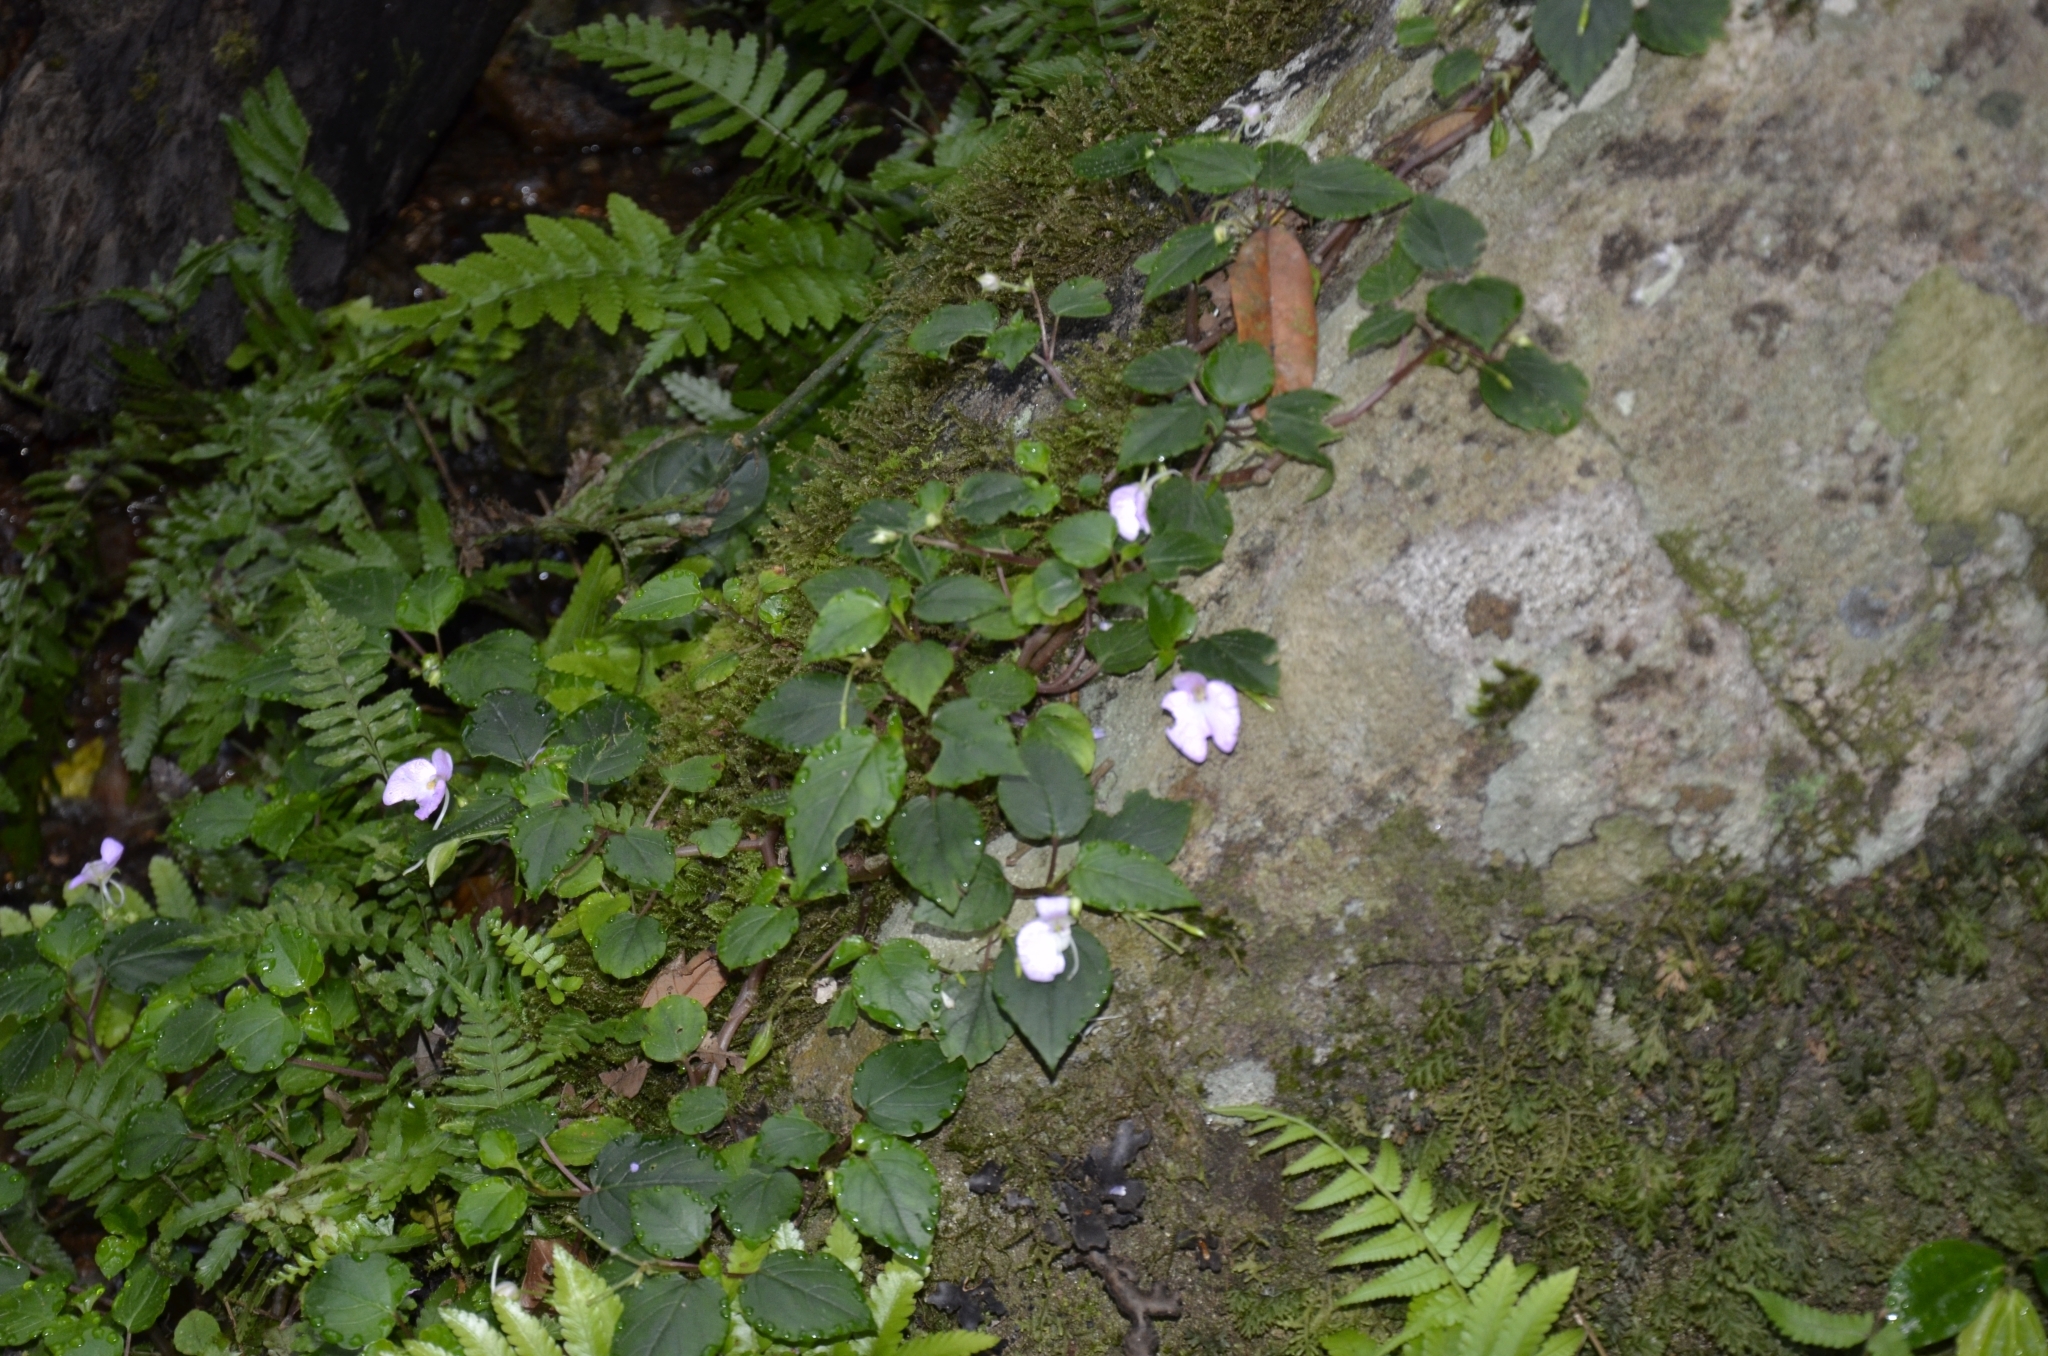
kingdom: Plantae
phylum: Tracheophyta
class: Magnoliopsida
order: Ericales
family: Balsaminaceae
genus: Impatiens
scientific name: Impatiens cordata
